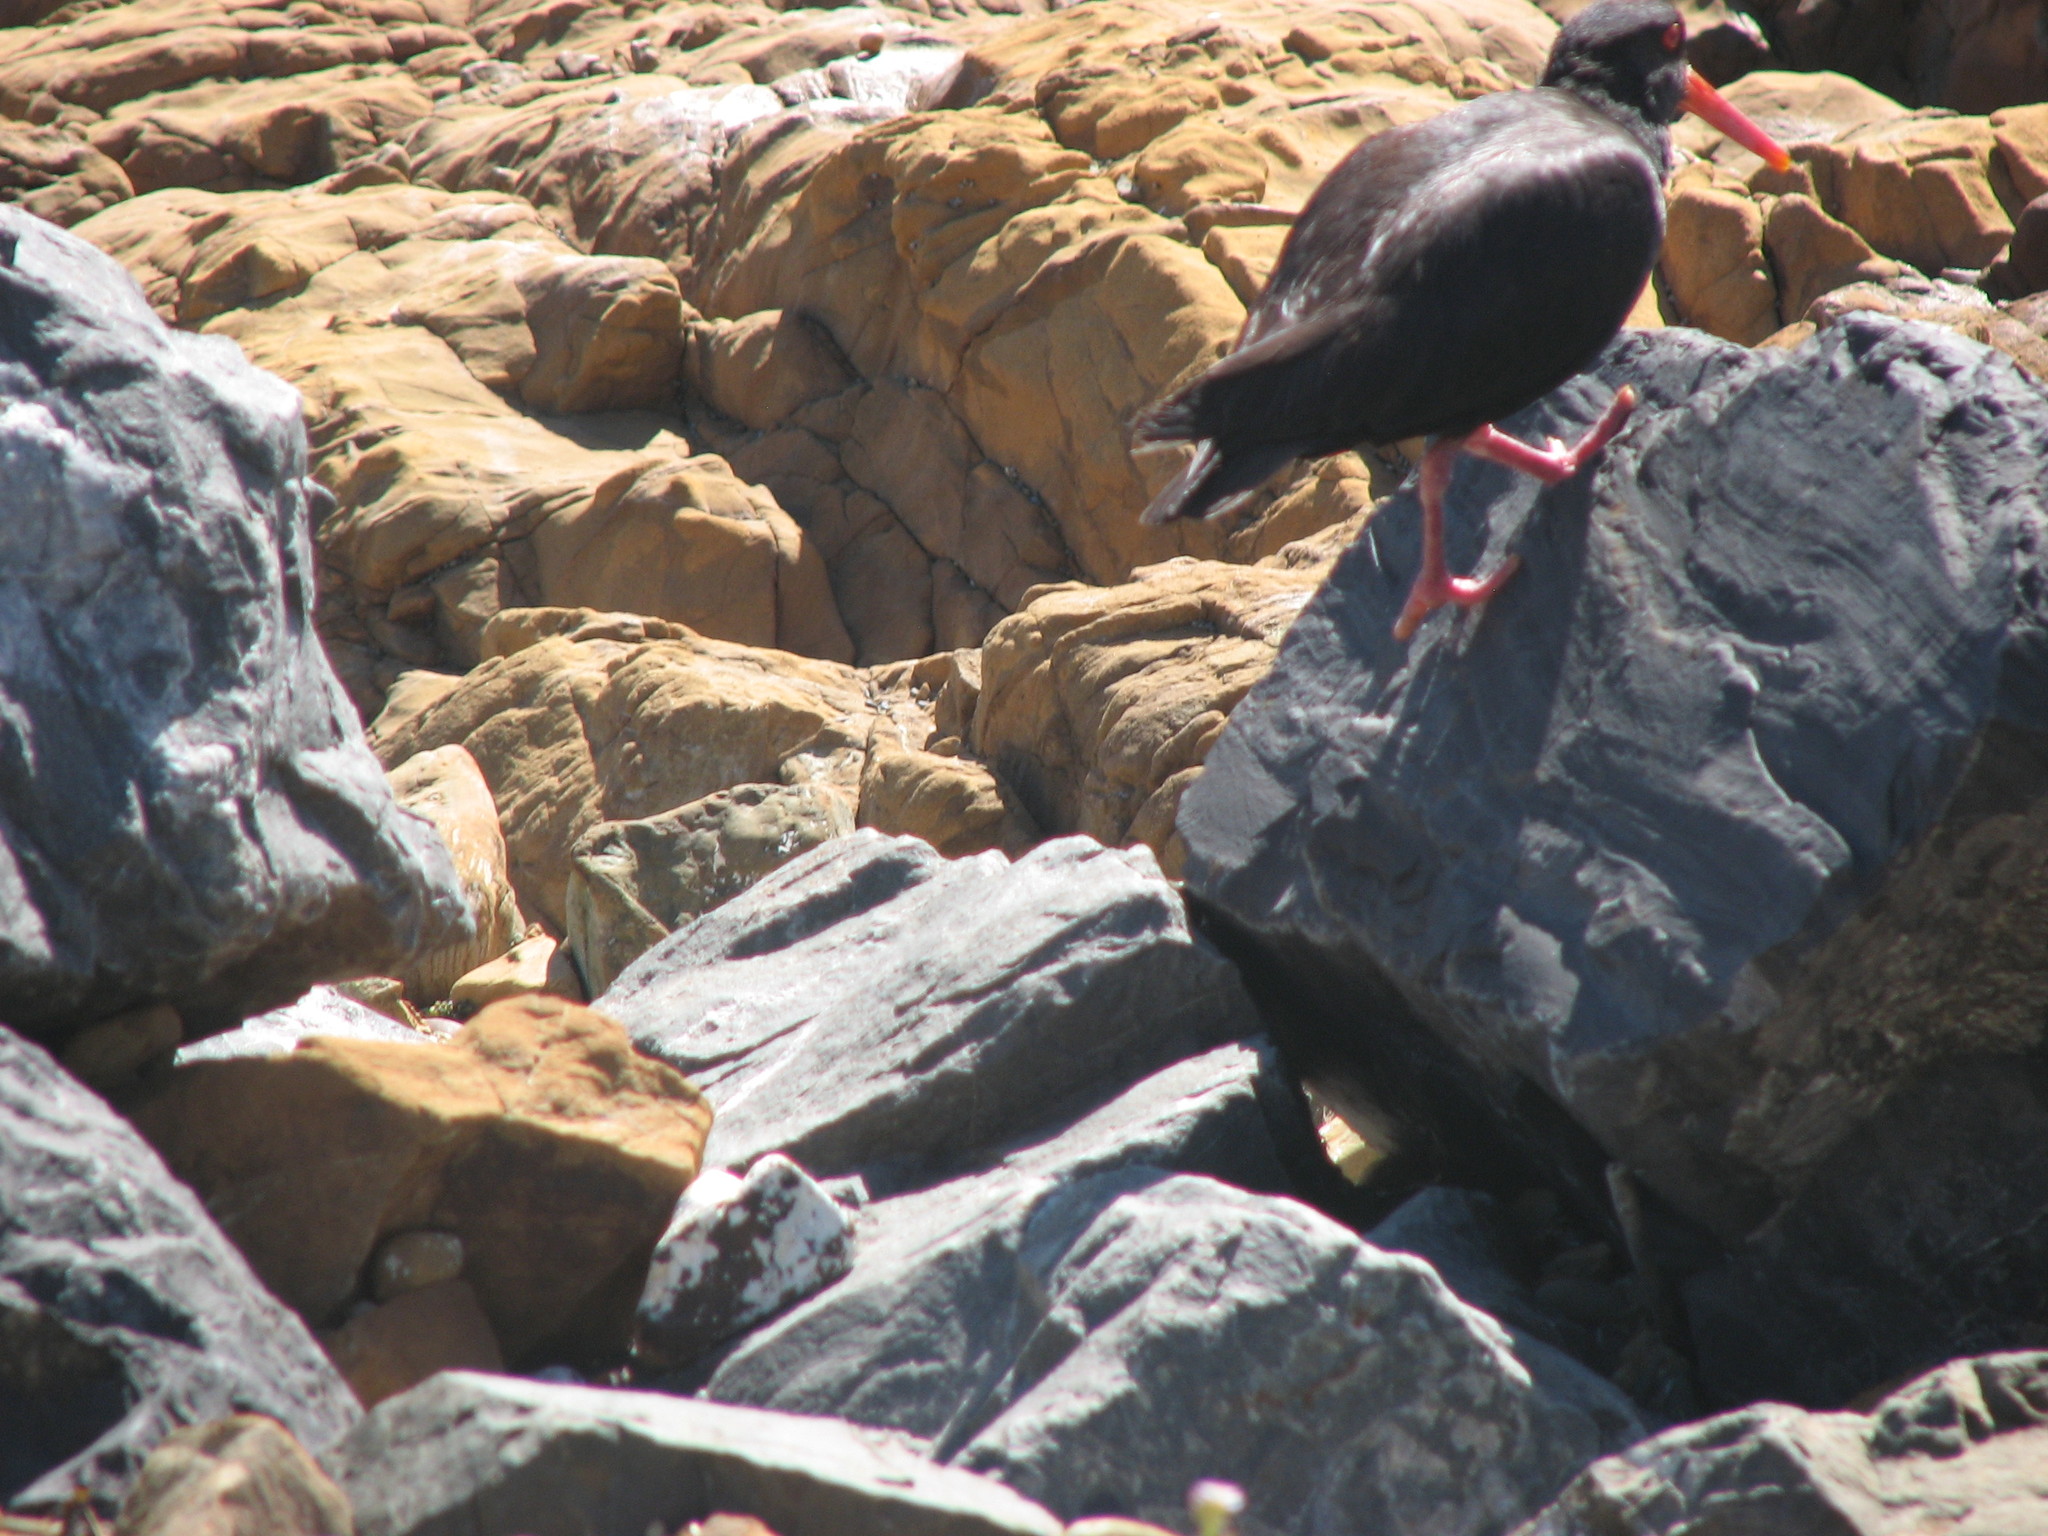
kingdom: Animalia
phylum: Chordata
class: Aves
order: Charadriiformes
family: Haematopodidae
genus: Haematopus
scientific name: Haematopus unicolor
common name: Variable oystercatcher
